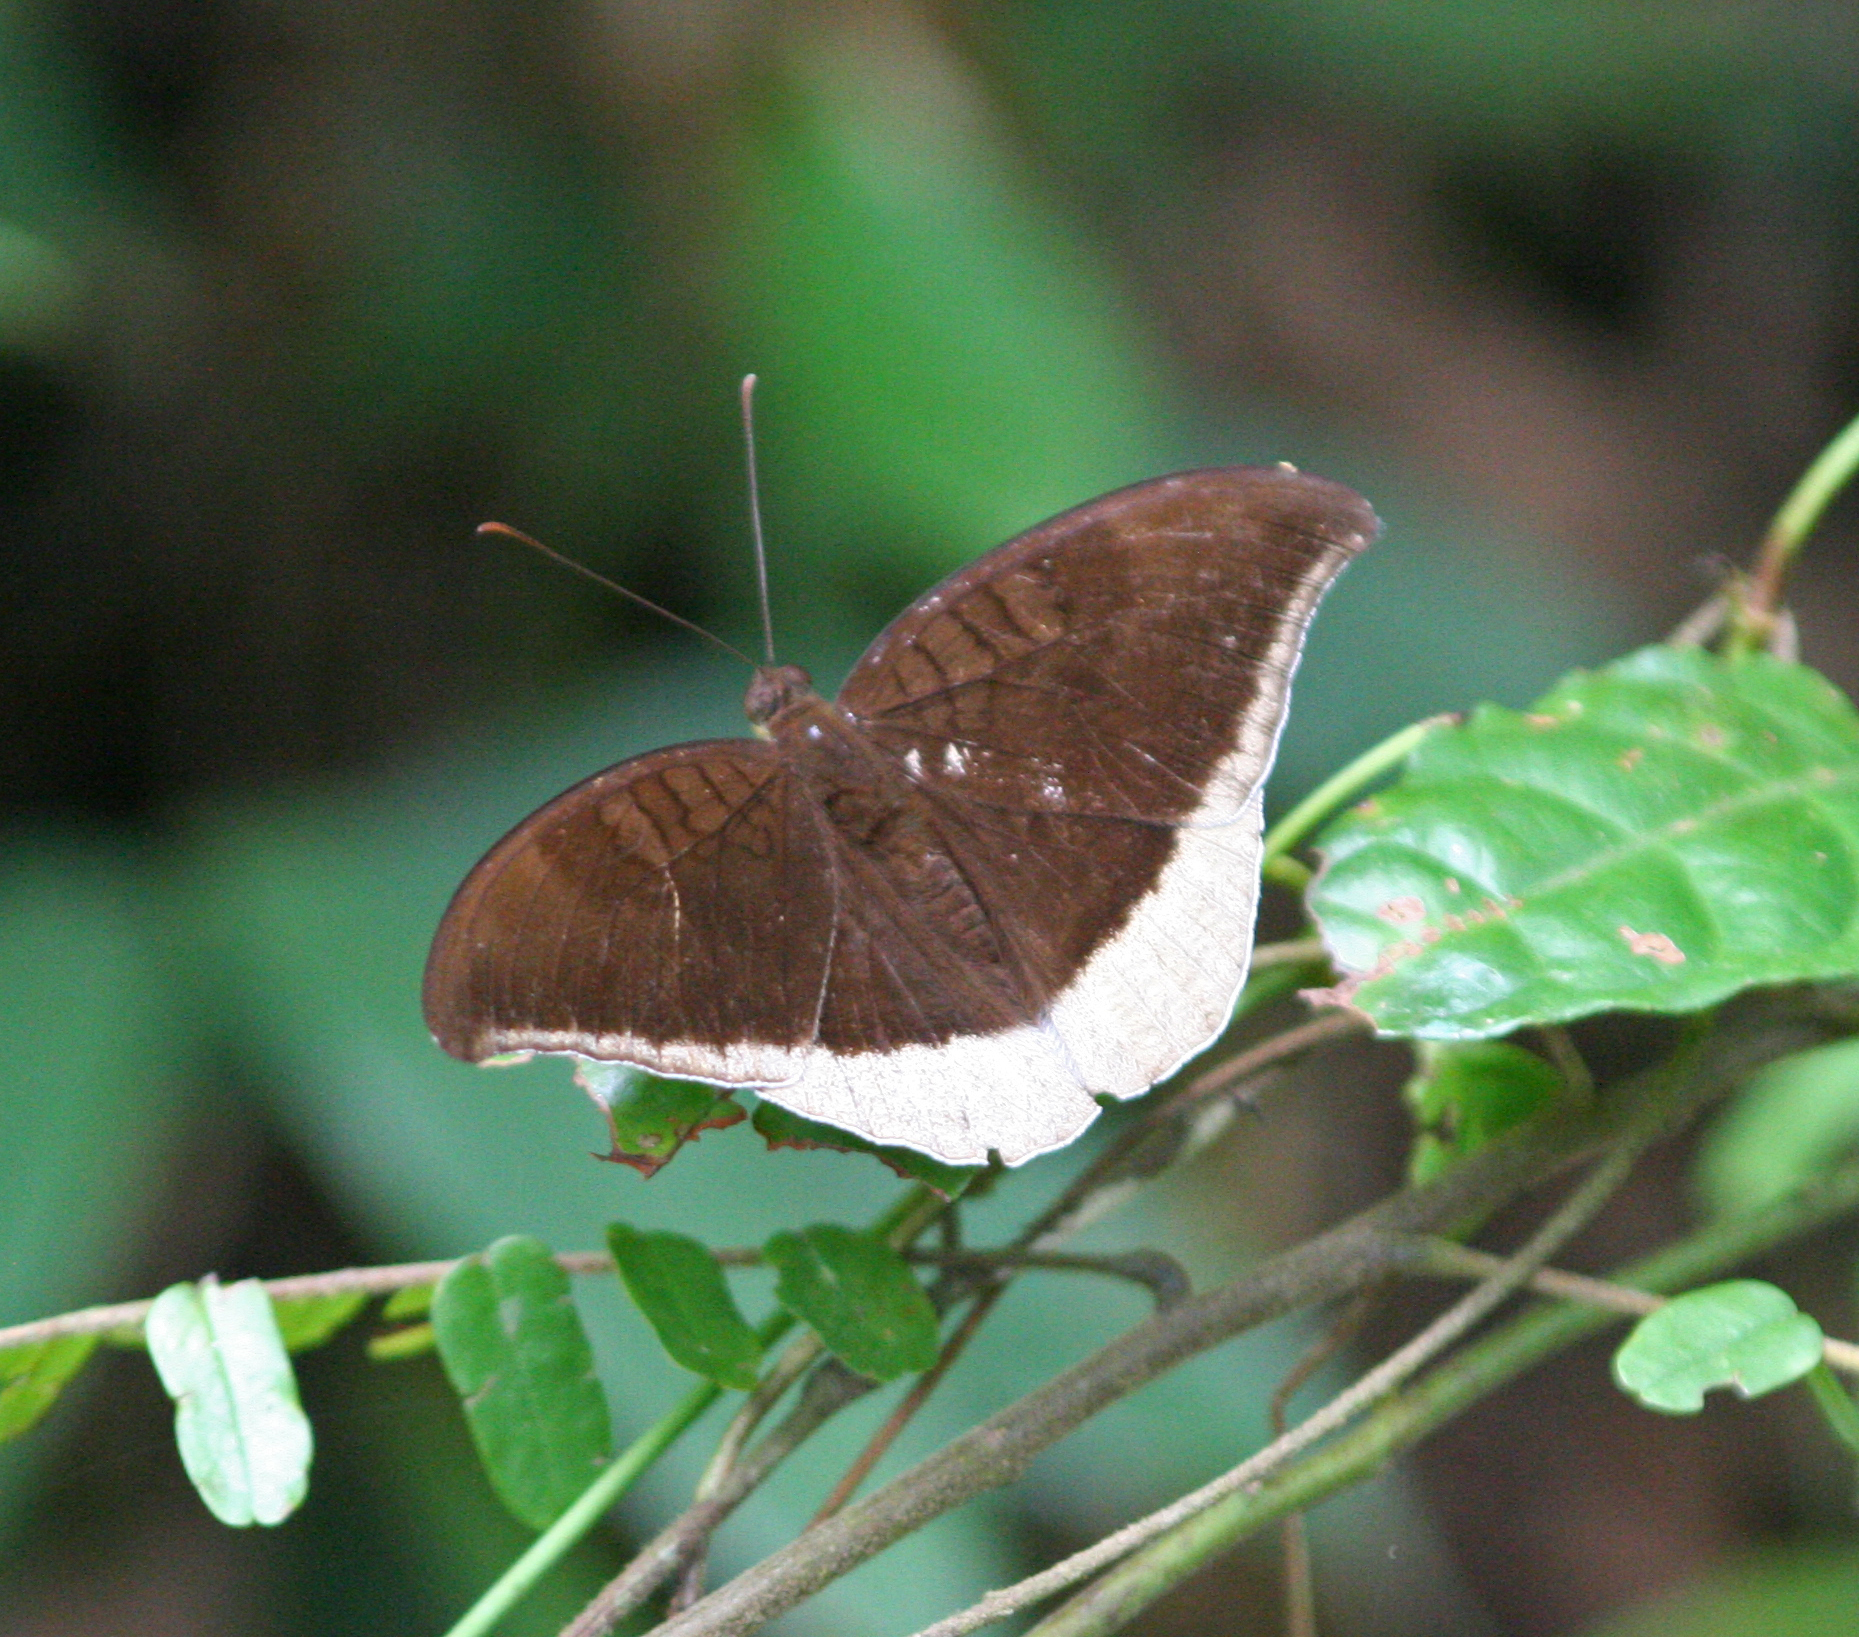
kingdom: Animalia
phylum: Arthropoda
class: Insecta
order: Lepidoptera
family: Nymphalidae
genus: Tanaecia
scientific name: Tanaecia lepidea
